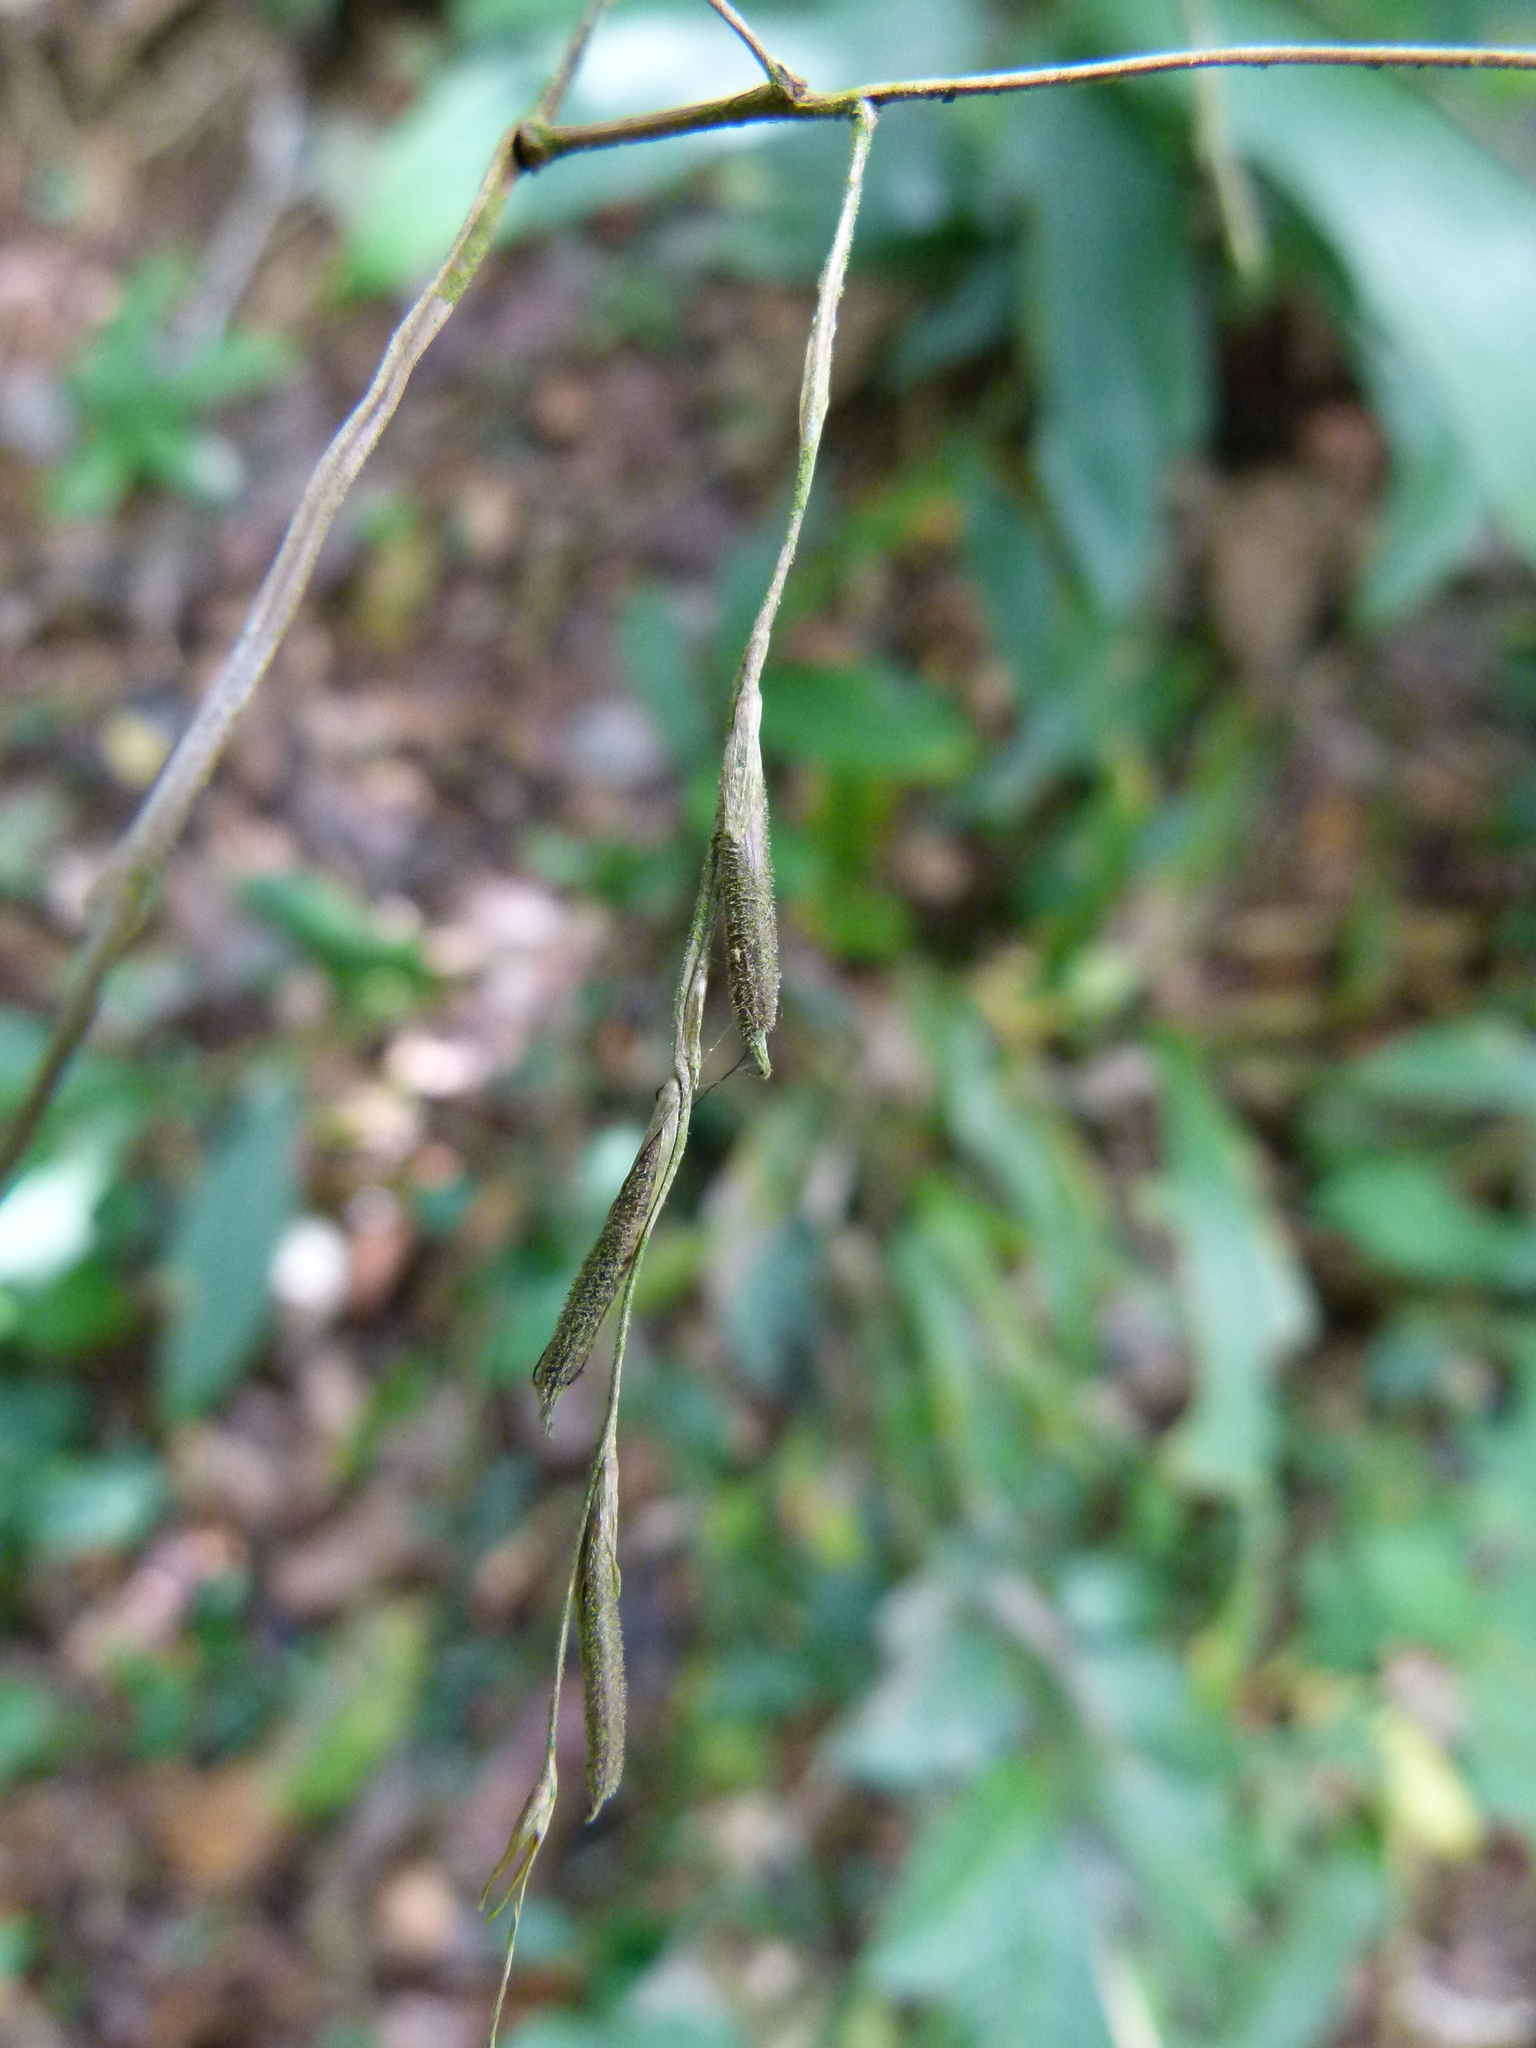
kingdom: Plantae
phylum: Tracheophyta
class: Liliopsida
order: Poales
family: Poaceae
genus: Pharus
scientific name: Pharus lappulaceus
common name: Creeping leafstalk grass
